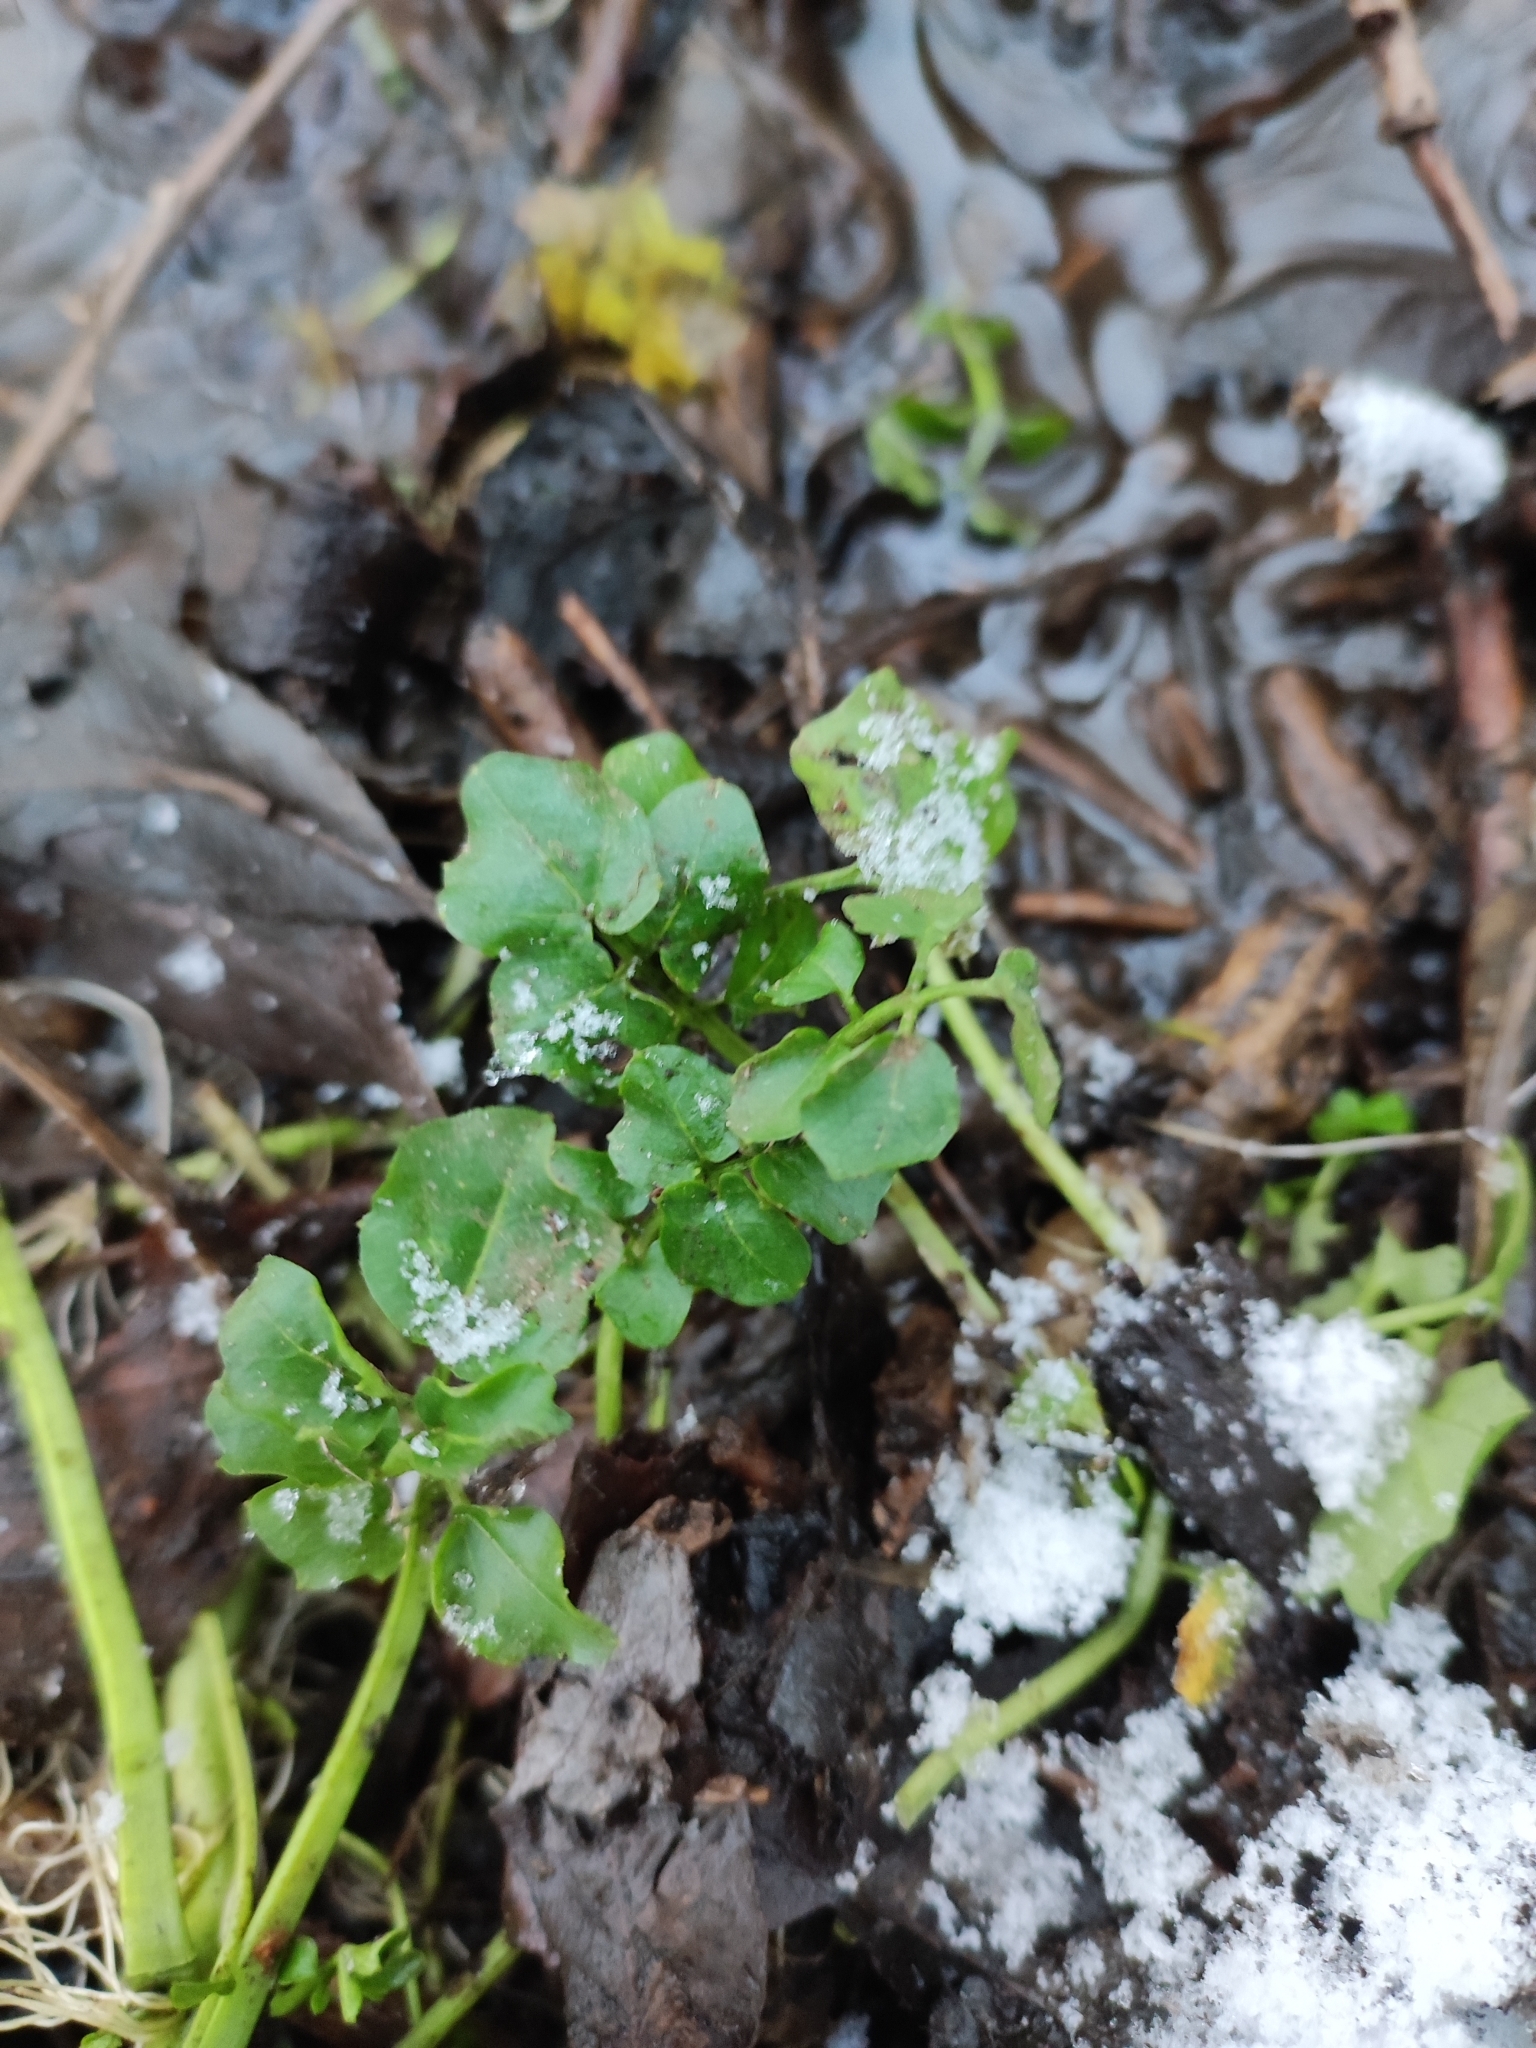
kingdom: Plantae
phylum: Tracheophyta
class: Magnoliopsida
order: Brassicales
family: Brassicaceae
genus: Cardamine
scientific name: Cardamine dentata
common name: Toothed bittercress
